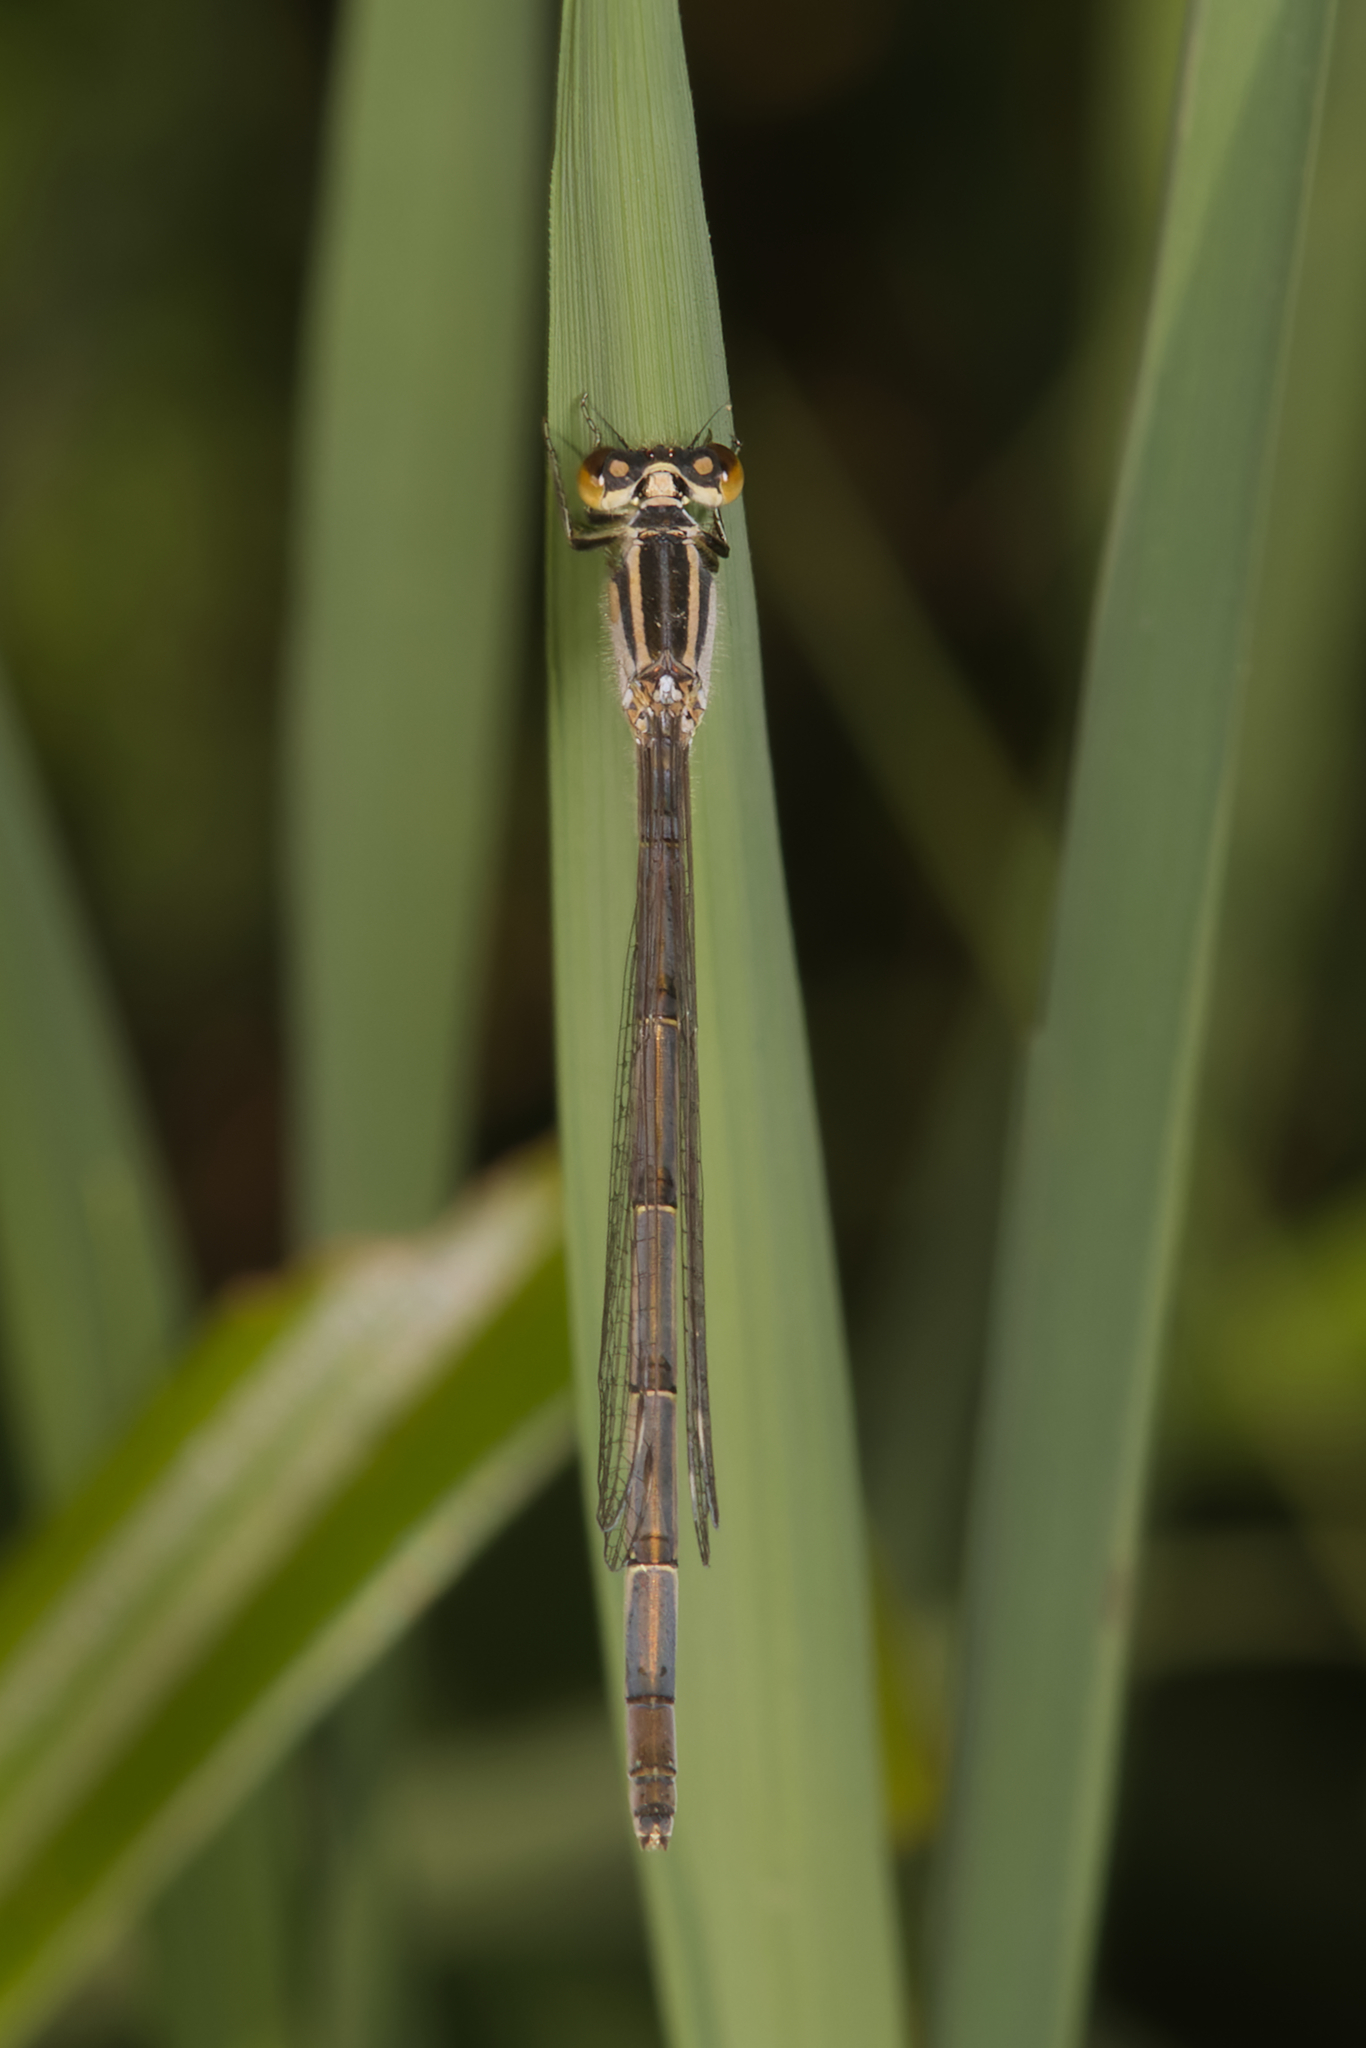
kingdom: Animalia
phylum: Arthropoda
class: Insecta
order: Odonata
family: Coenagrionidae
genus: Ischnura
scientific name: Ischnura heterosticta
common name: Common bluetail
